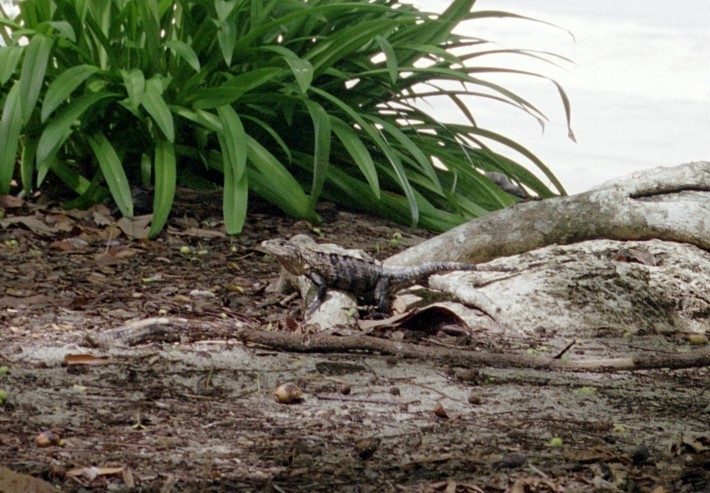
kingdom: Animalia
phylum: Chordata
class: Squamata
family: Iguanidae
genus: Ctenosaura
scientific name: Ctenosaura similis
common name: Black spiny-tailed iguana
